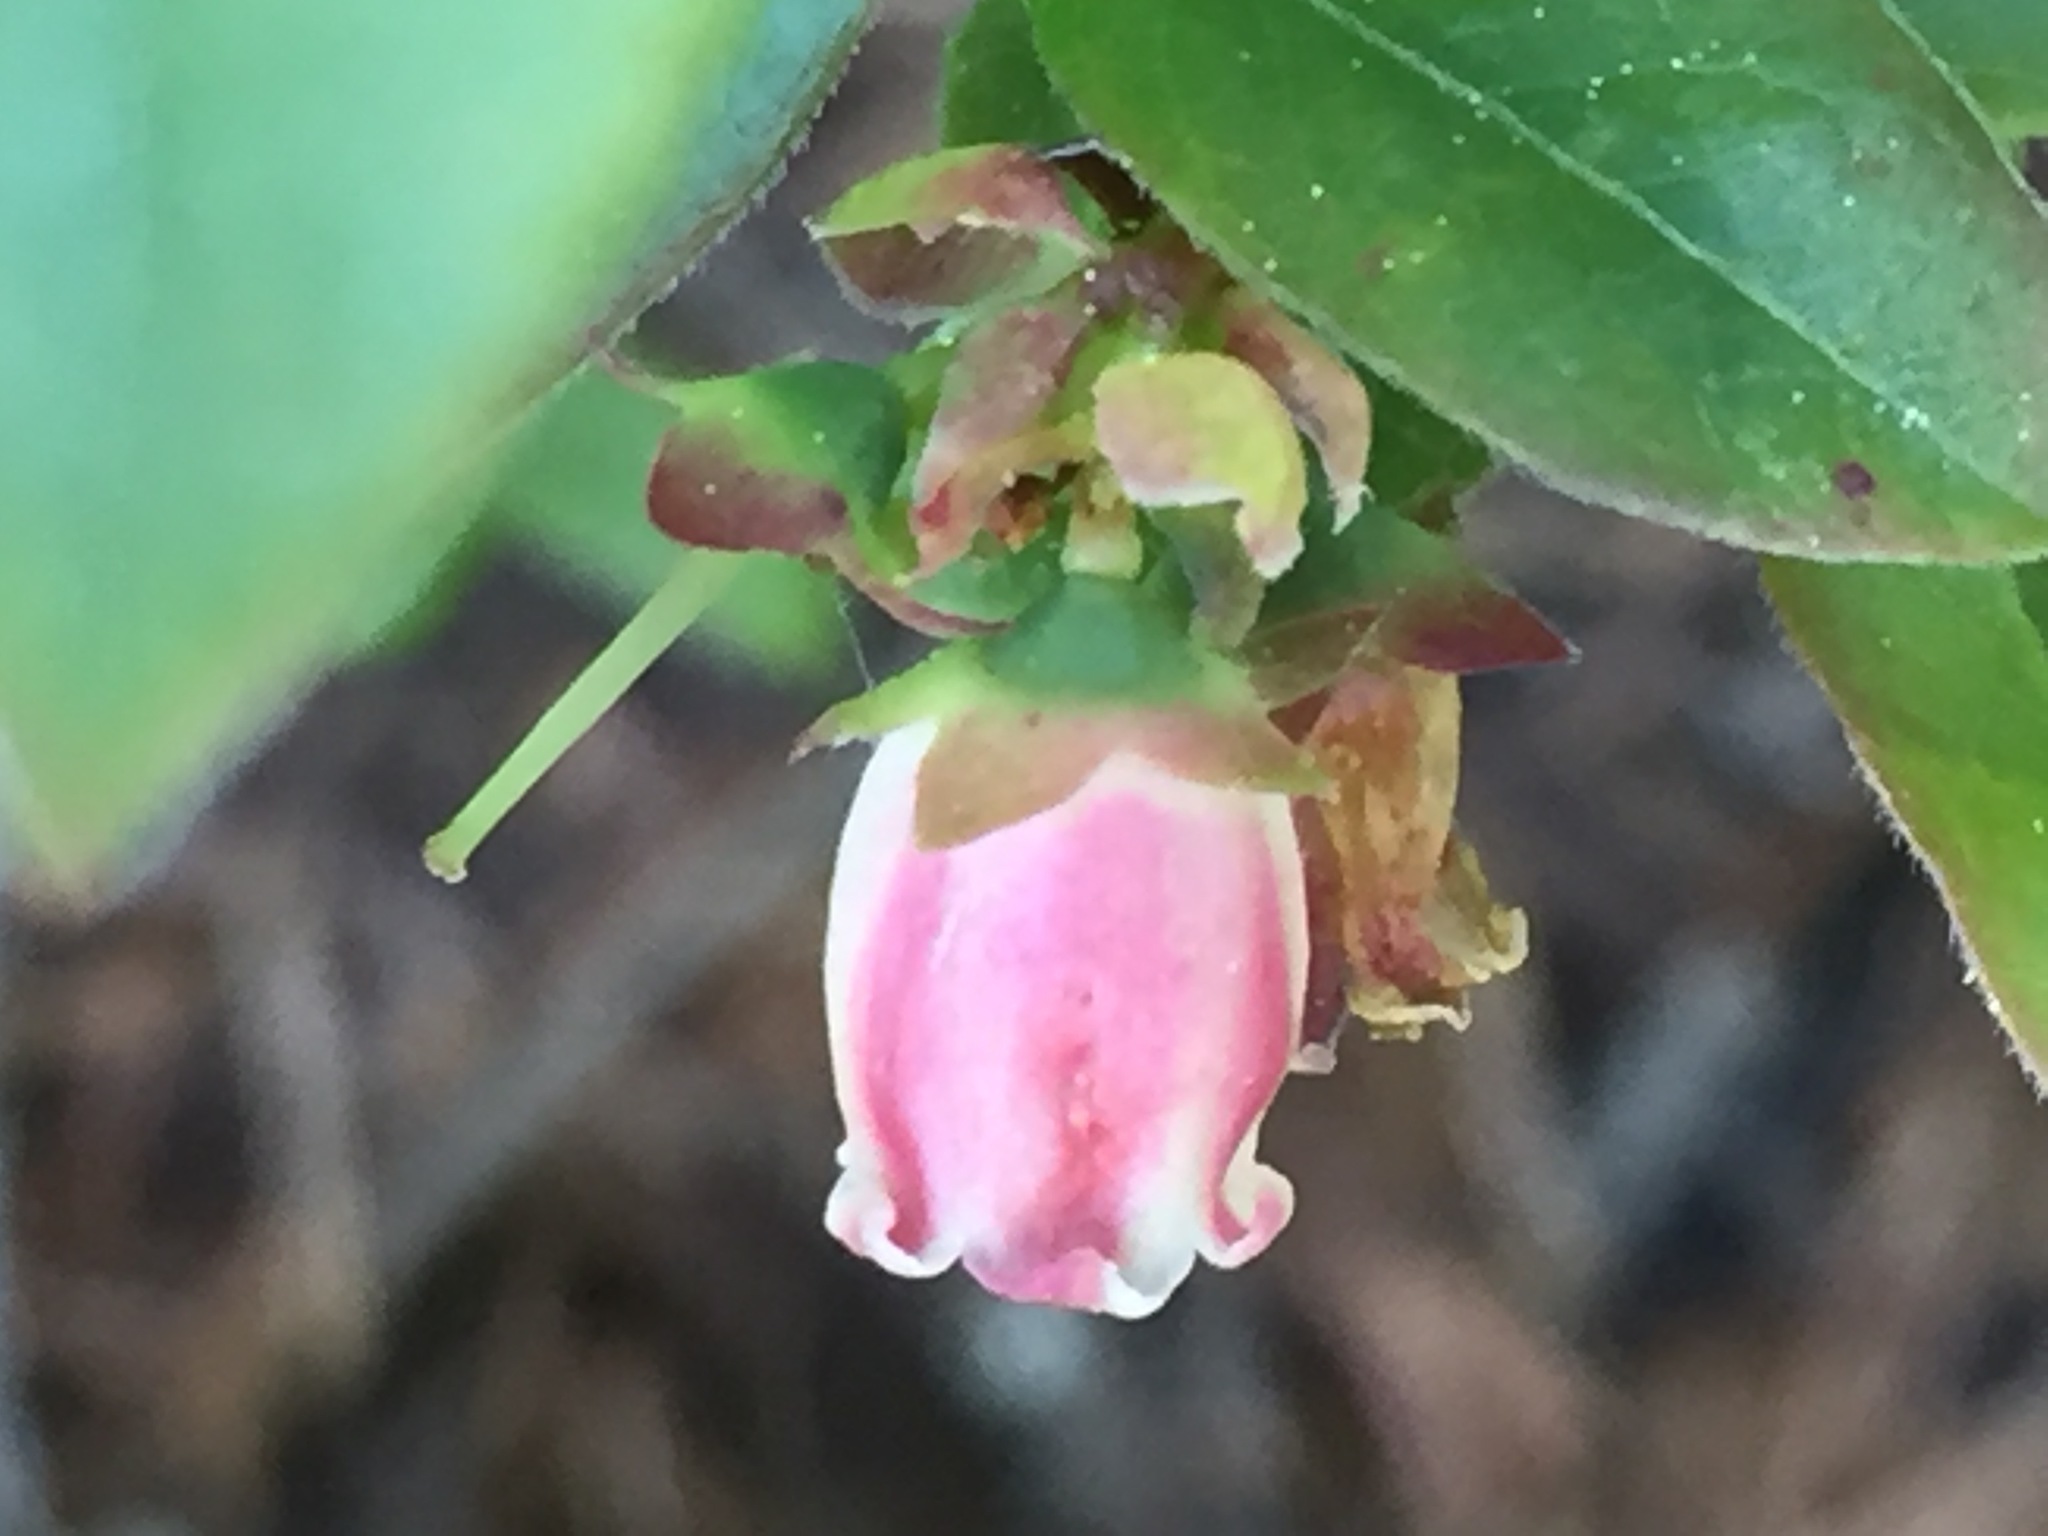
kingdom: Plantae
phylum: Tracheophyta
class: Magnoliopsida
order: Ericales
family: Ericaceae
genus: Vaccinium
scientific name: Vaccinium angustifolium
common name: Early lowbush blueberry
